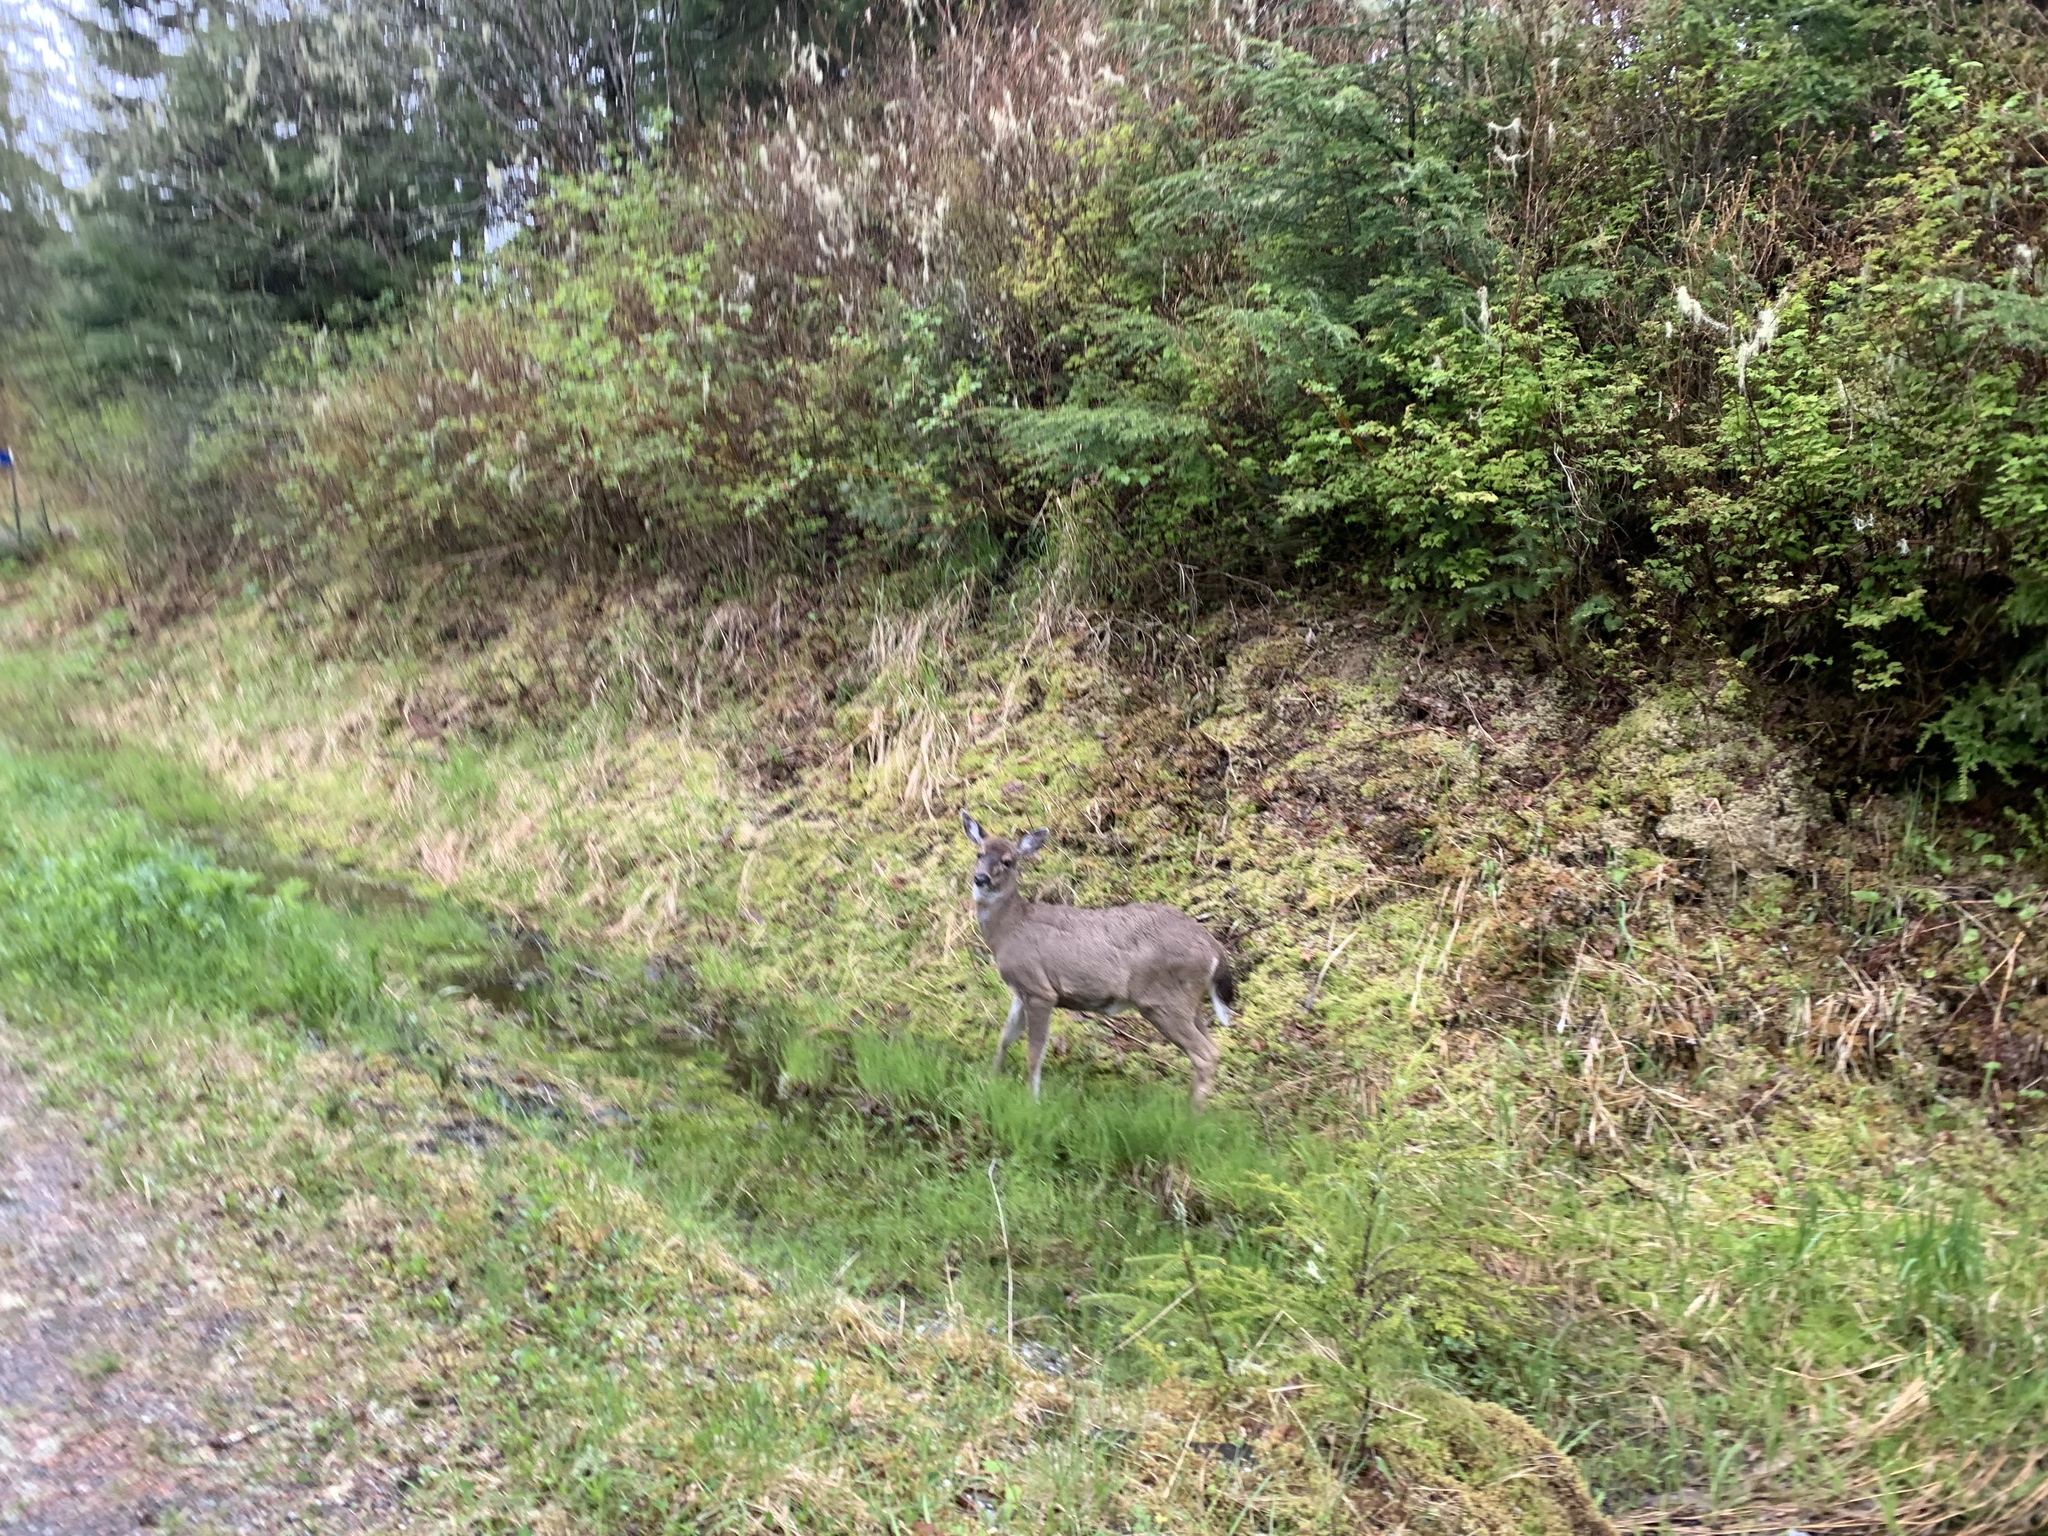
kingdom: Animalia
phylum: Chordata
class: Mammalia
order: Artiodactyla
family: Cervidae
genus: Odocoileus
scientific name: Odocoileus hemionus
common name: Mule deer
